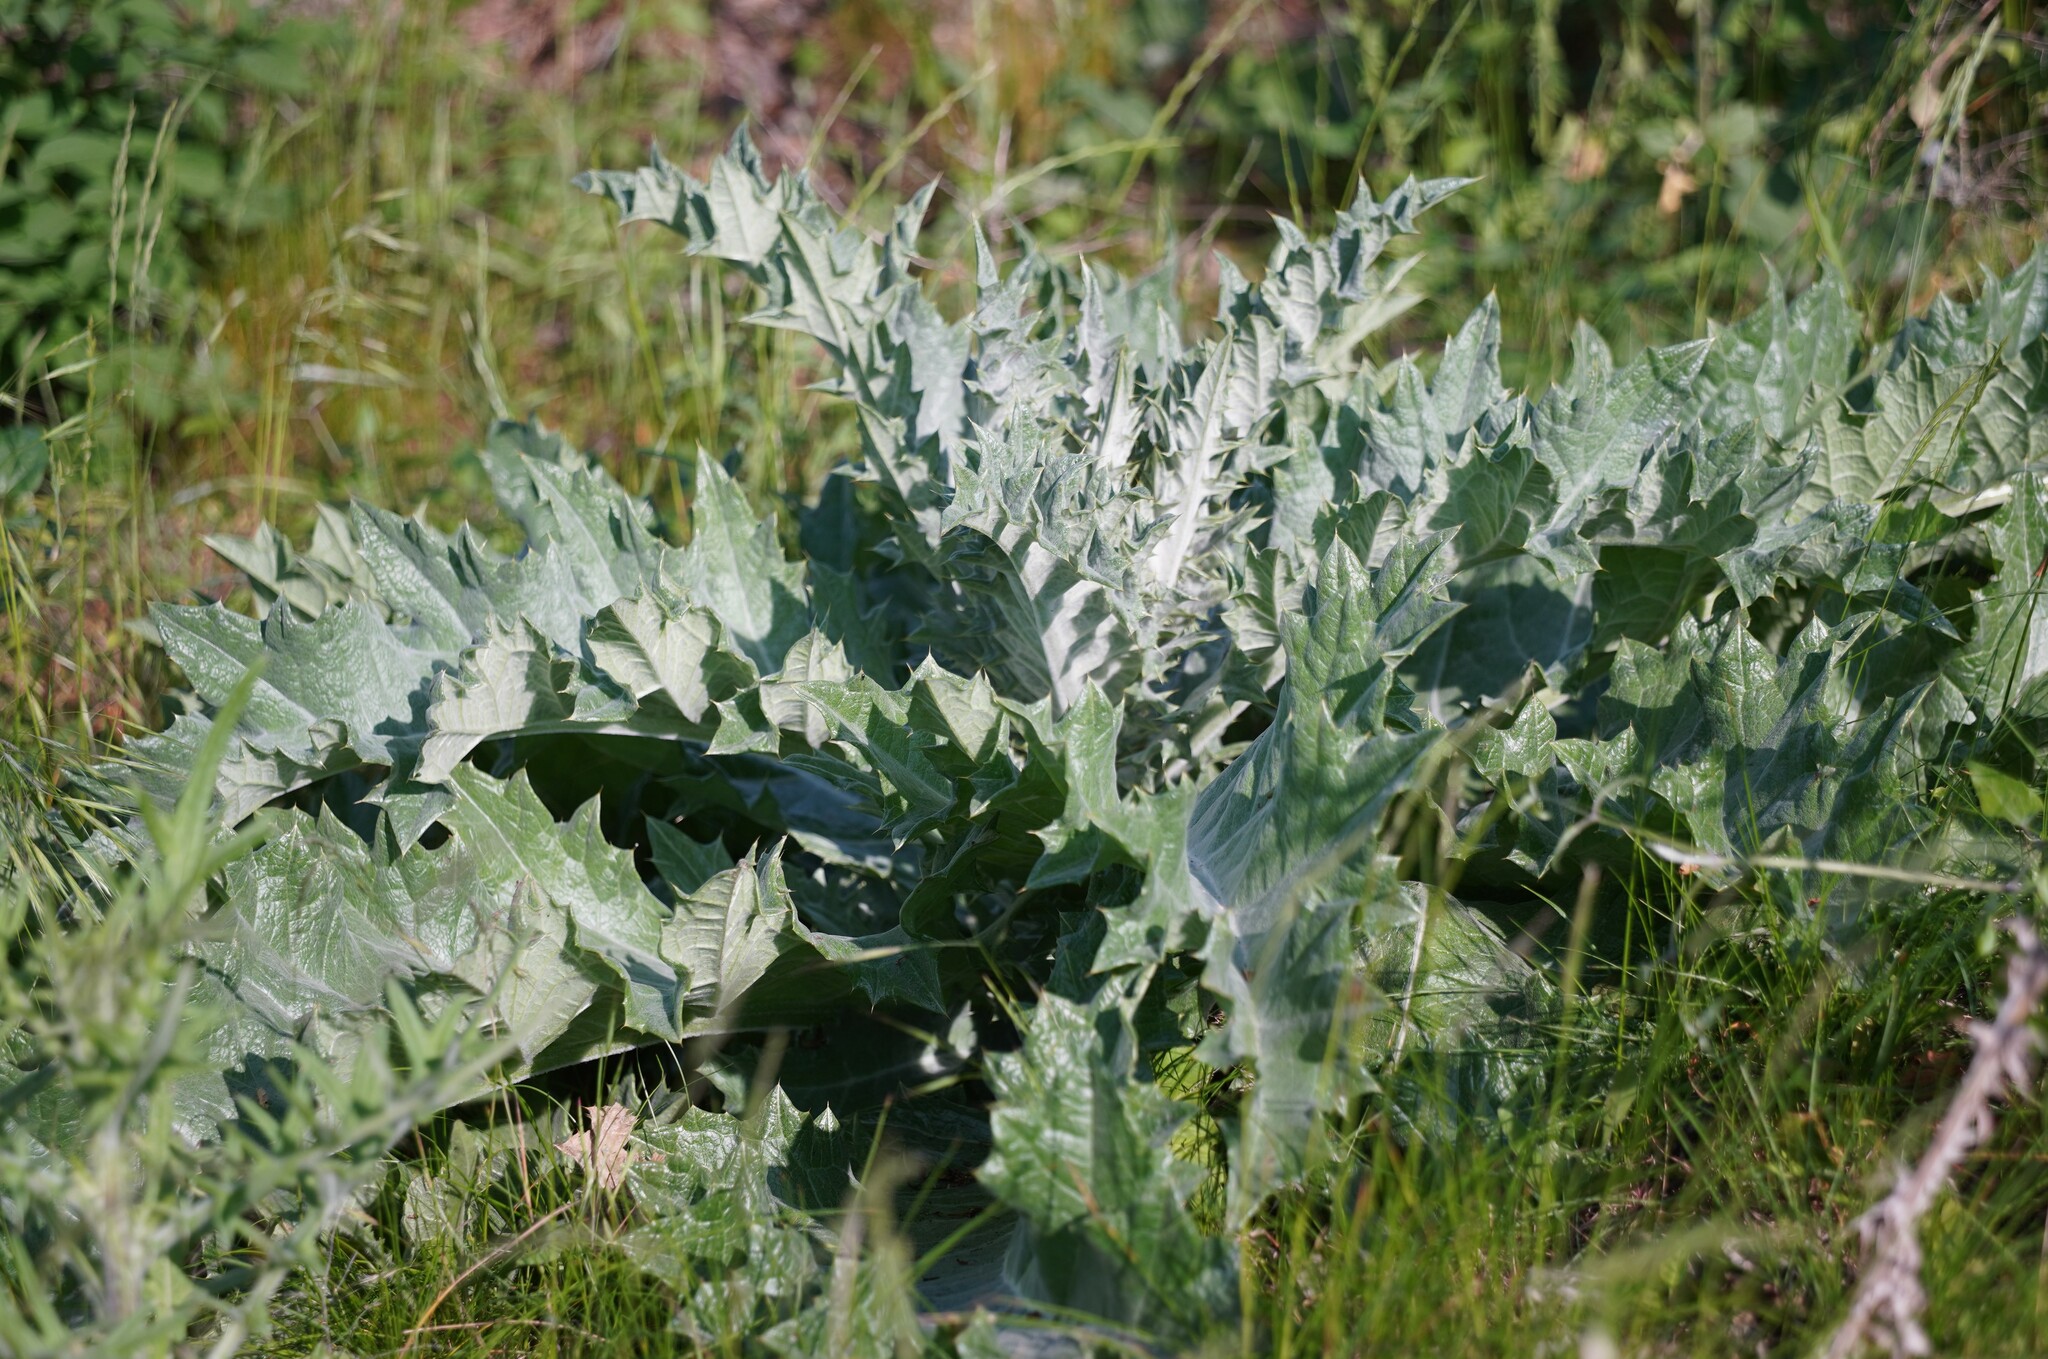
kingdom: Plantae
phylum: Tracheophyta
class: Magnoliopsida
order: Asterales
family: Asteraceae
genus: Onopordum
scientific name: Onopordum acanthium
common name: Scotch thistle
